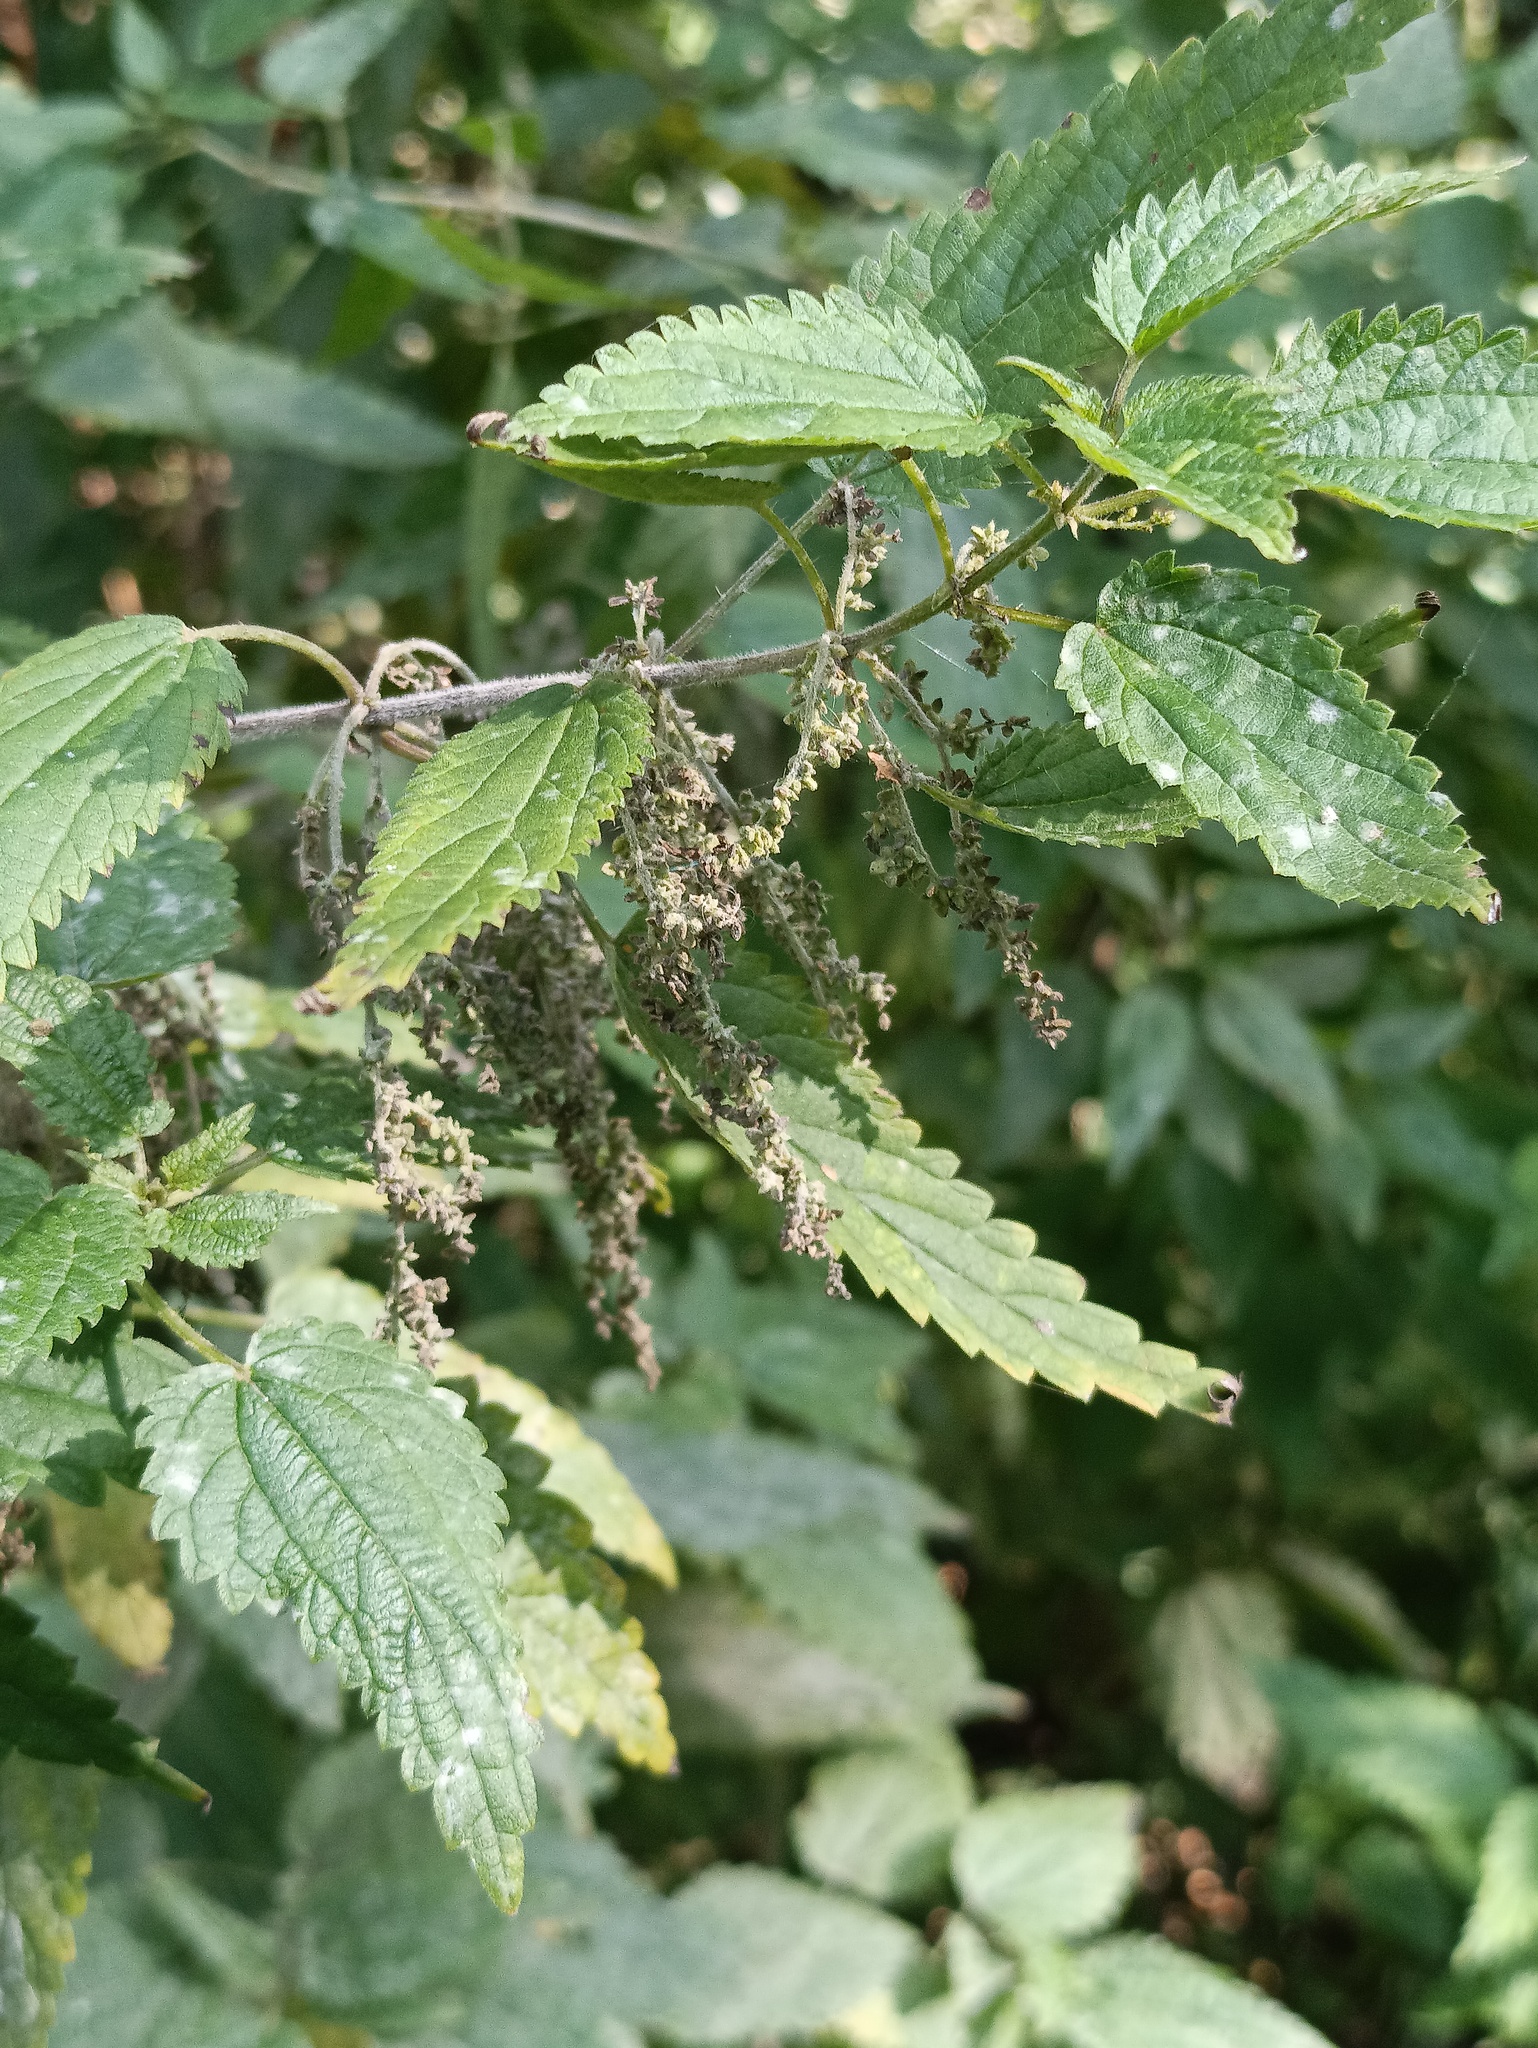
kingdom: Plantae
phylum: Tracheophyta
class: Magnoliopsida
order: Rosales
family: Urticaceae
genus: Urtica
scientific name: Urtica dioica
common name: Common nettle
